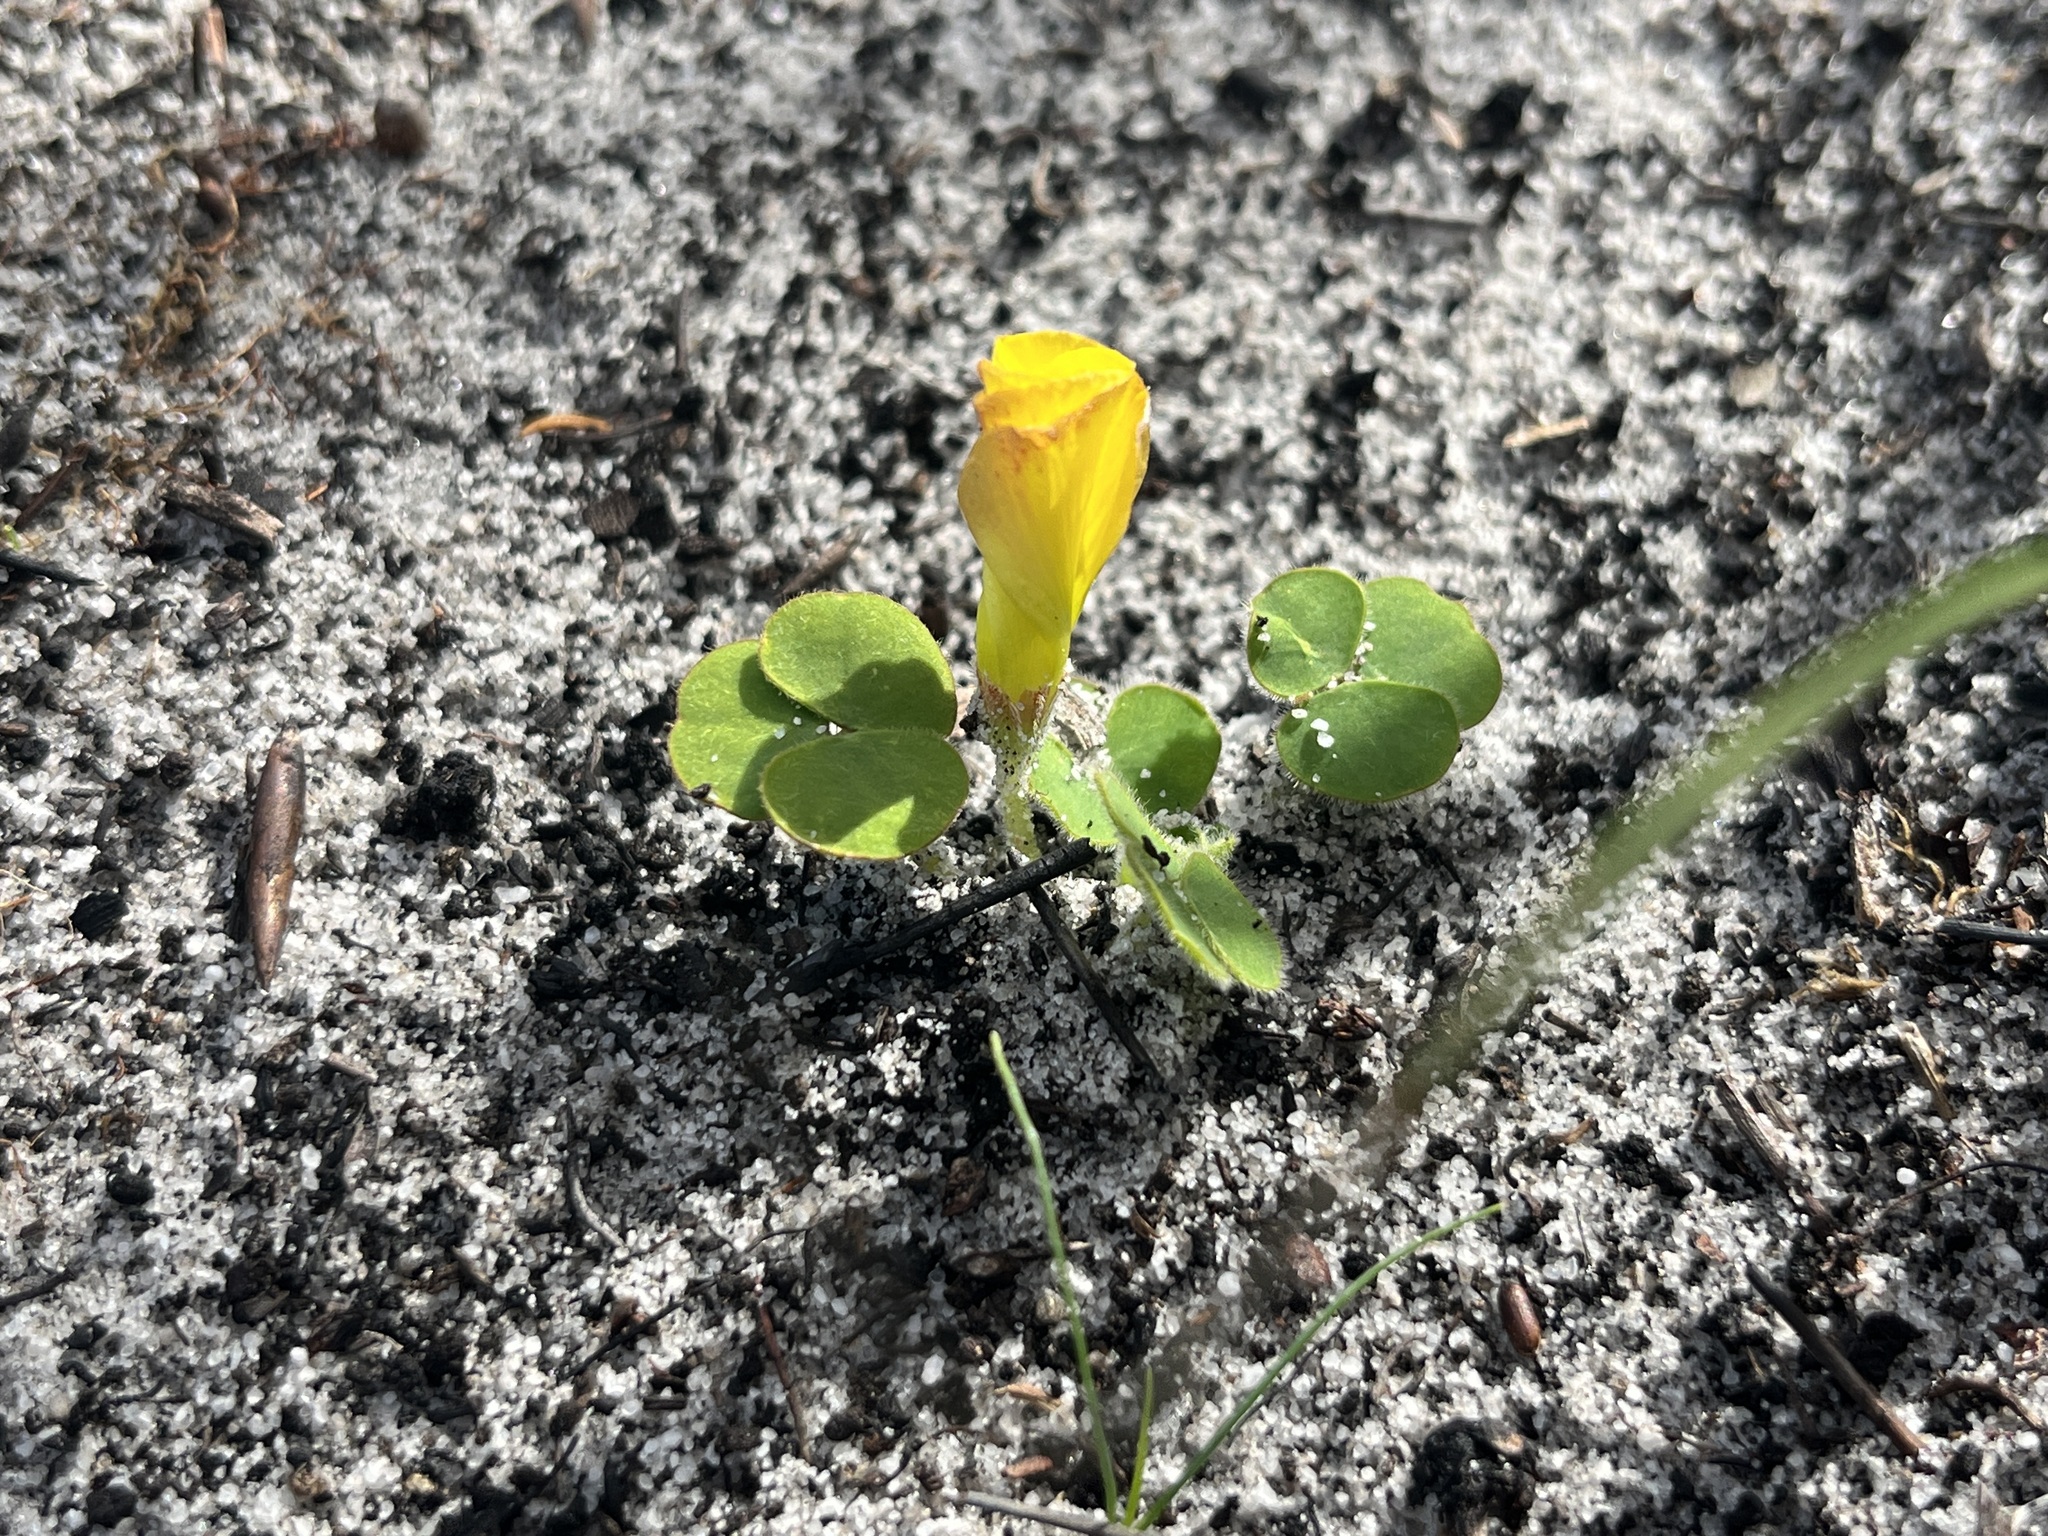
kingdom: Plantae
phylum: Tracheophyta
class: Magnoliopsida
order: Oxalidales
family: Oxalidaceae
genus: Oxalis
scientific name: Oxalis luteola
